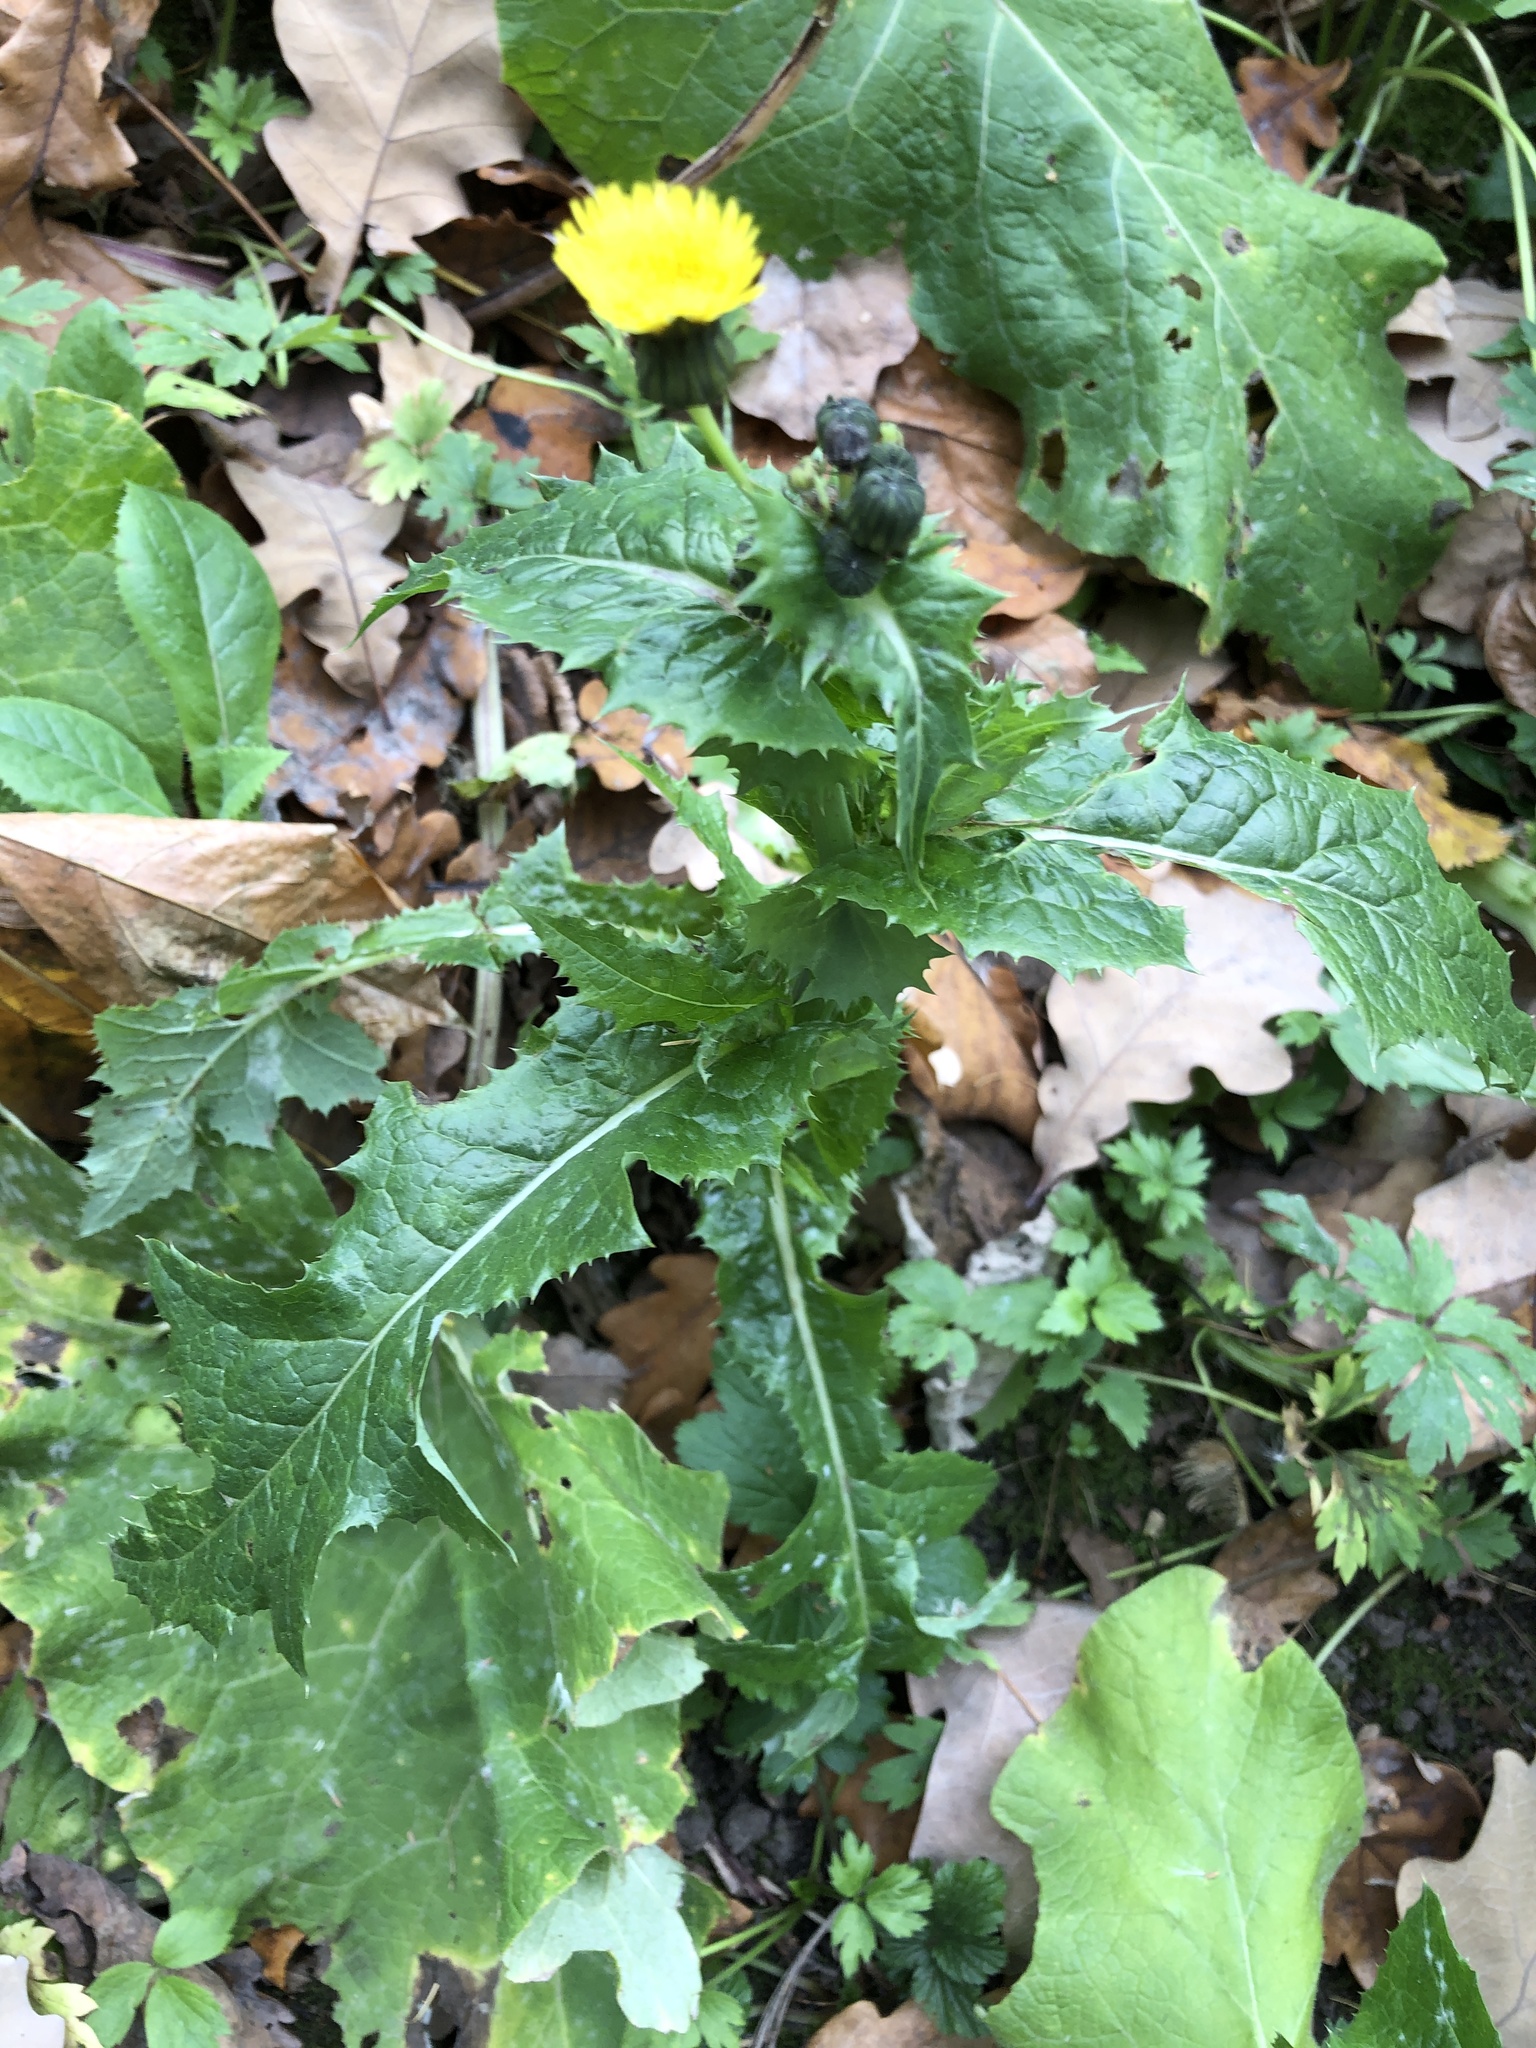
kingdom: Plantae
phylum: Tracheophyta
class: Magnoliopsida
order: Asterales
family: Asteraceae
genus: Sonchus
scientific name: Sonchus asper
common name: Prickly sow-thistle
